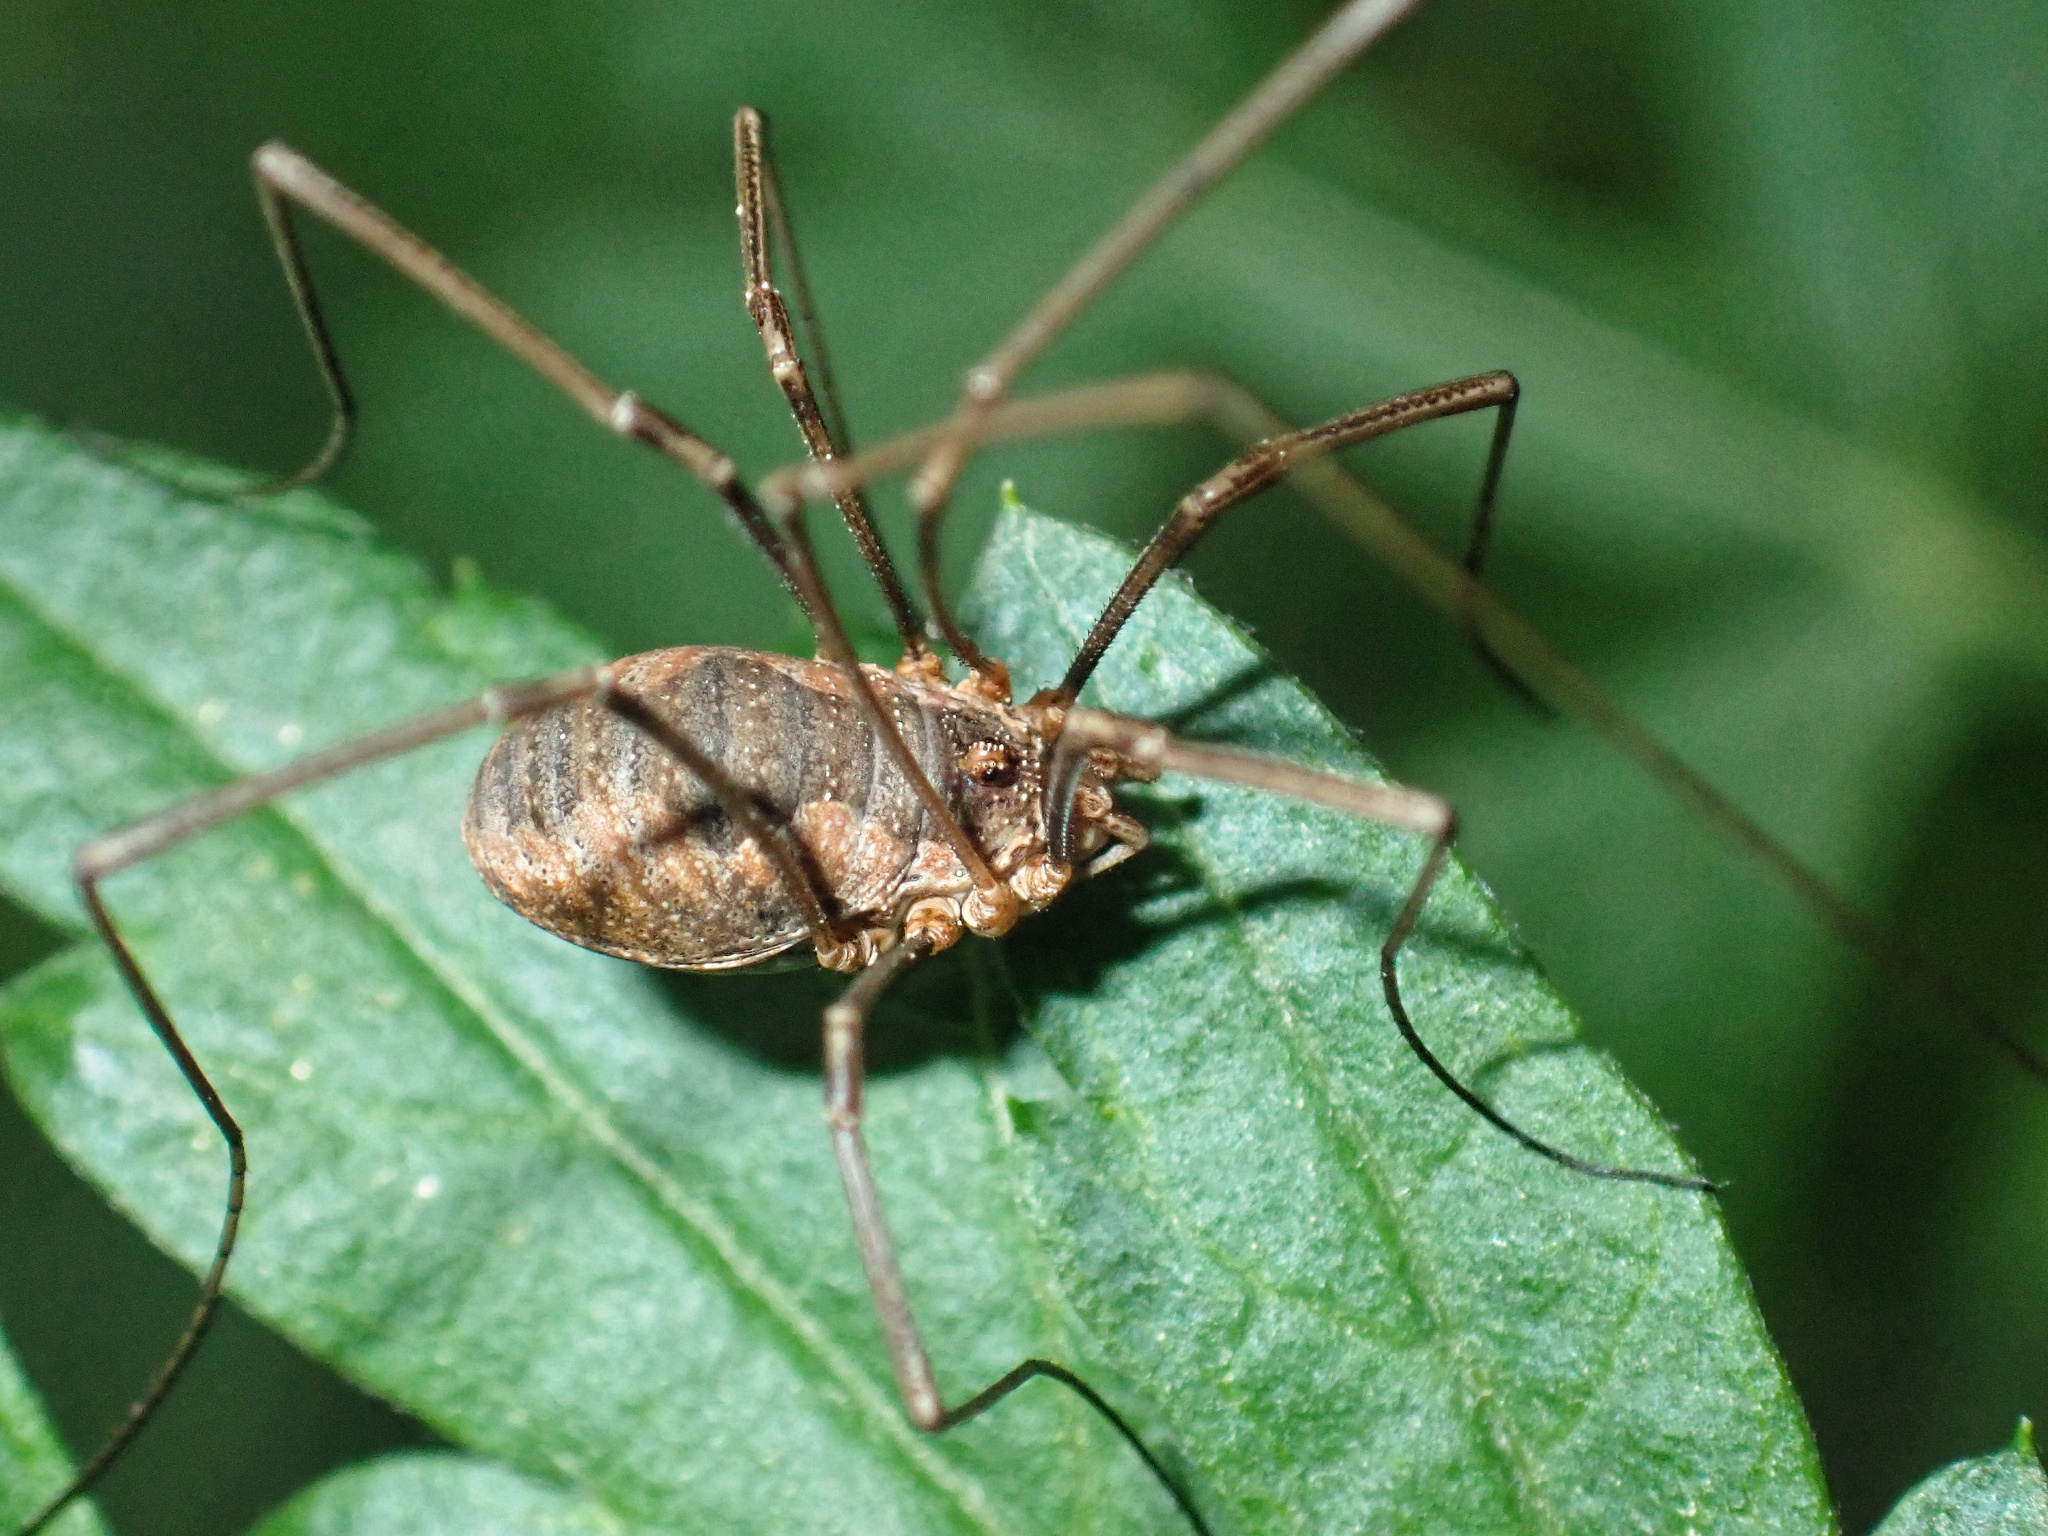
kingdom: Animalia
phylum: Arthropoda
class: Arachnida
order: Opiliones
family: Phalangiidae
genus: Phalangium
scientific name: Phalangium opilio
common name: Daddy longleg
